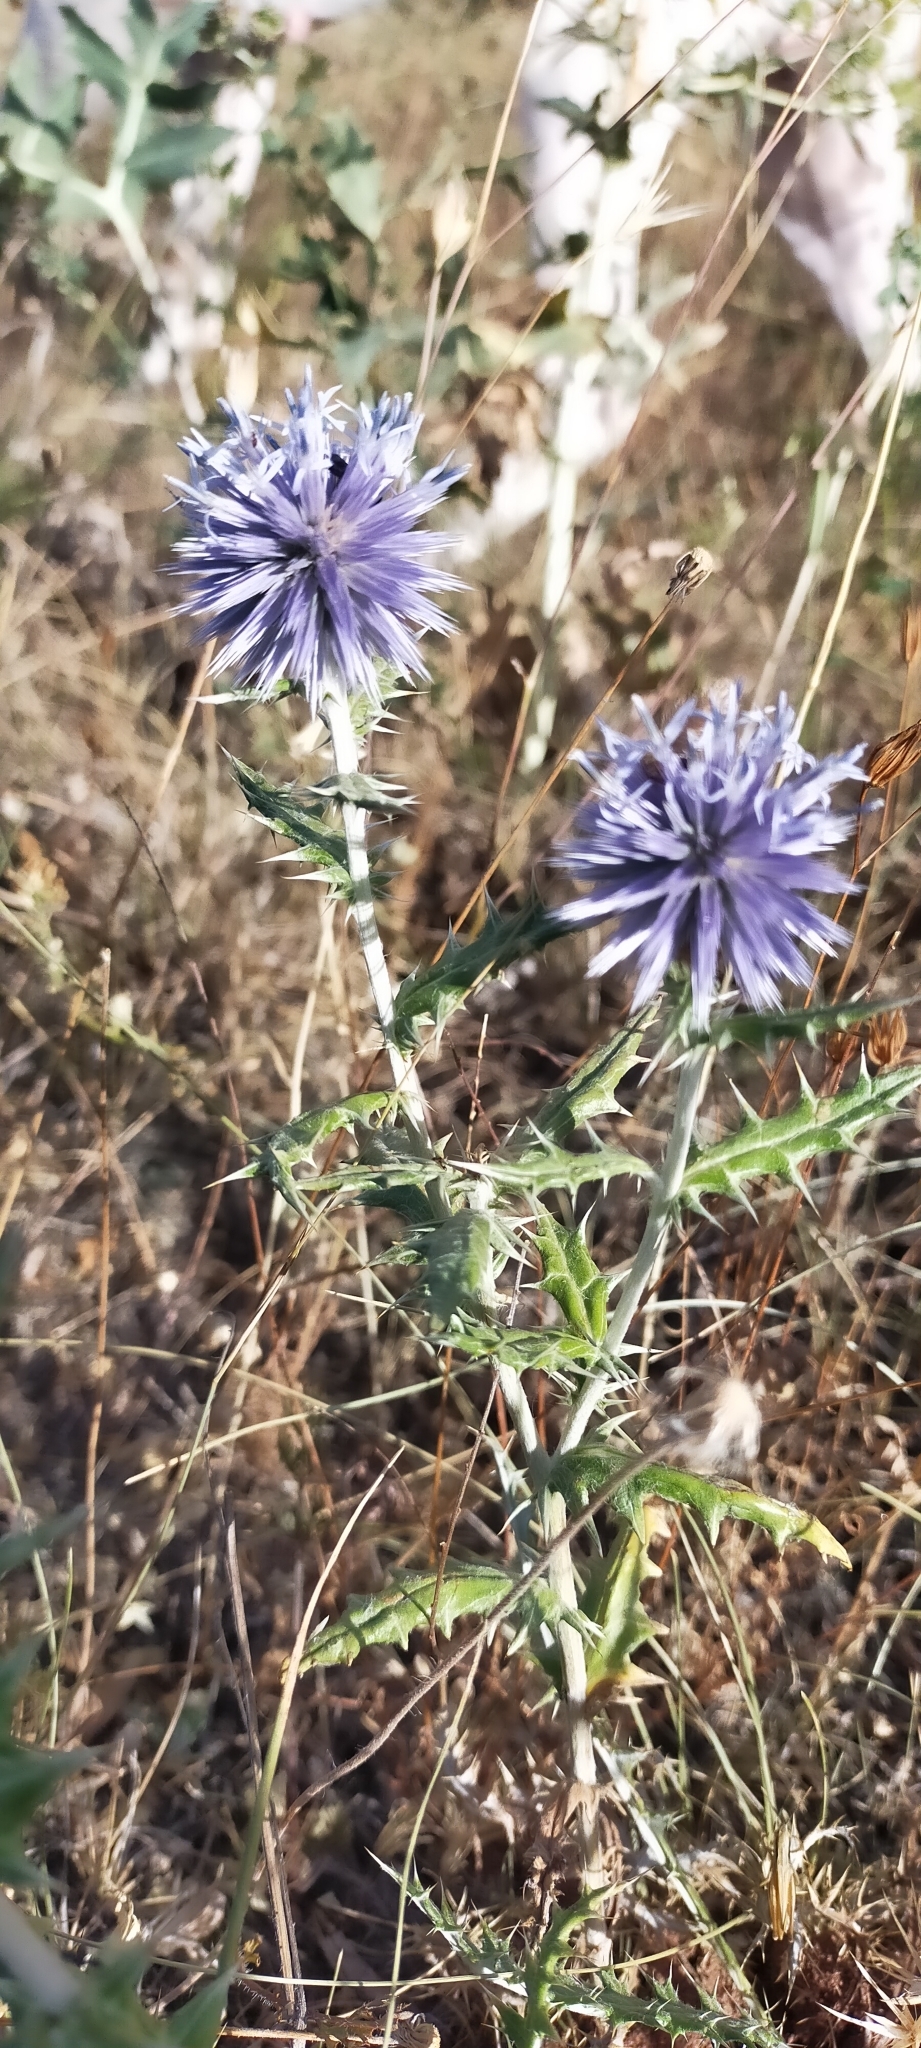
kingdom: Plantae
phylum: Tracheophyta
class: Magnoliopsida
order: Asterales
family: Asteraceae
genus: Echinops
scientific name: Echinops ritro
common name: Globe thistle
